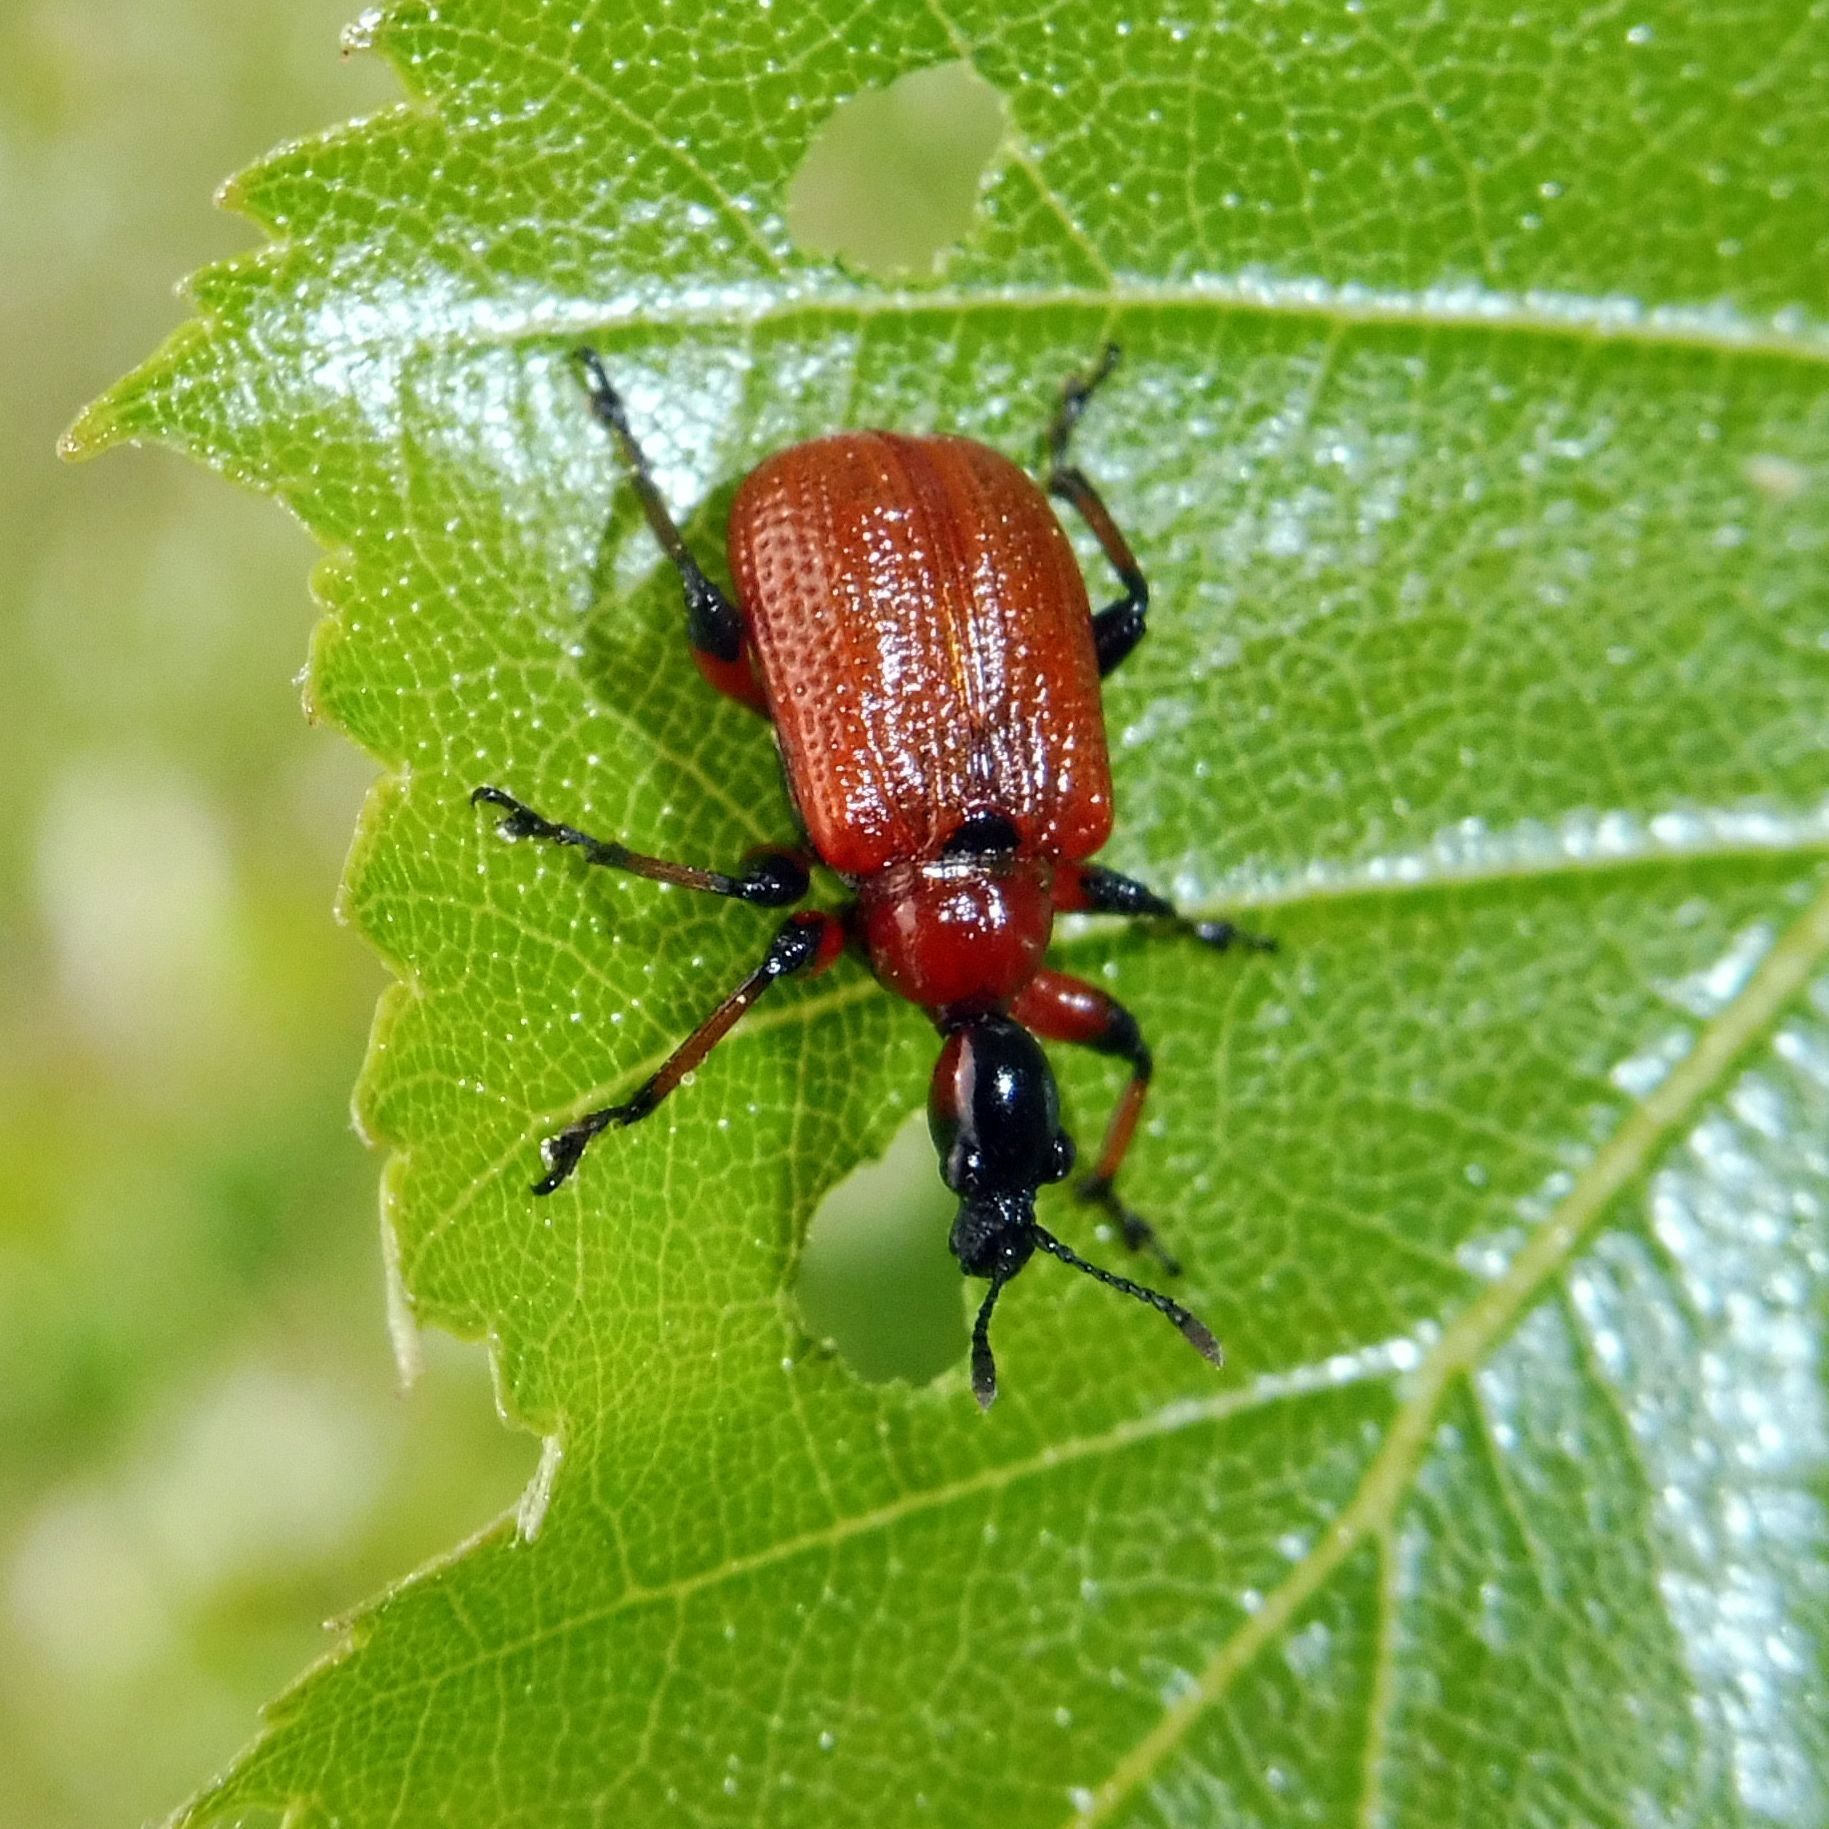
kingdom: Animalia
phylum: Arthropoda
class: Insecta
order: Coleoptera
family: Attelabidae
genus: Apoderus
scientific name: Apoderus coryli
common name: Hazel leaf roller
